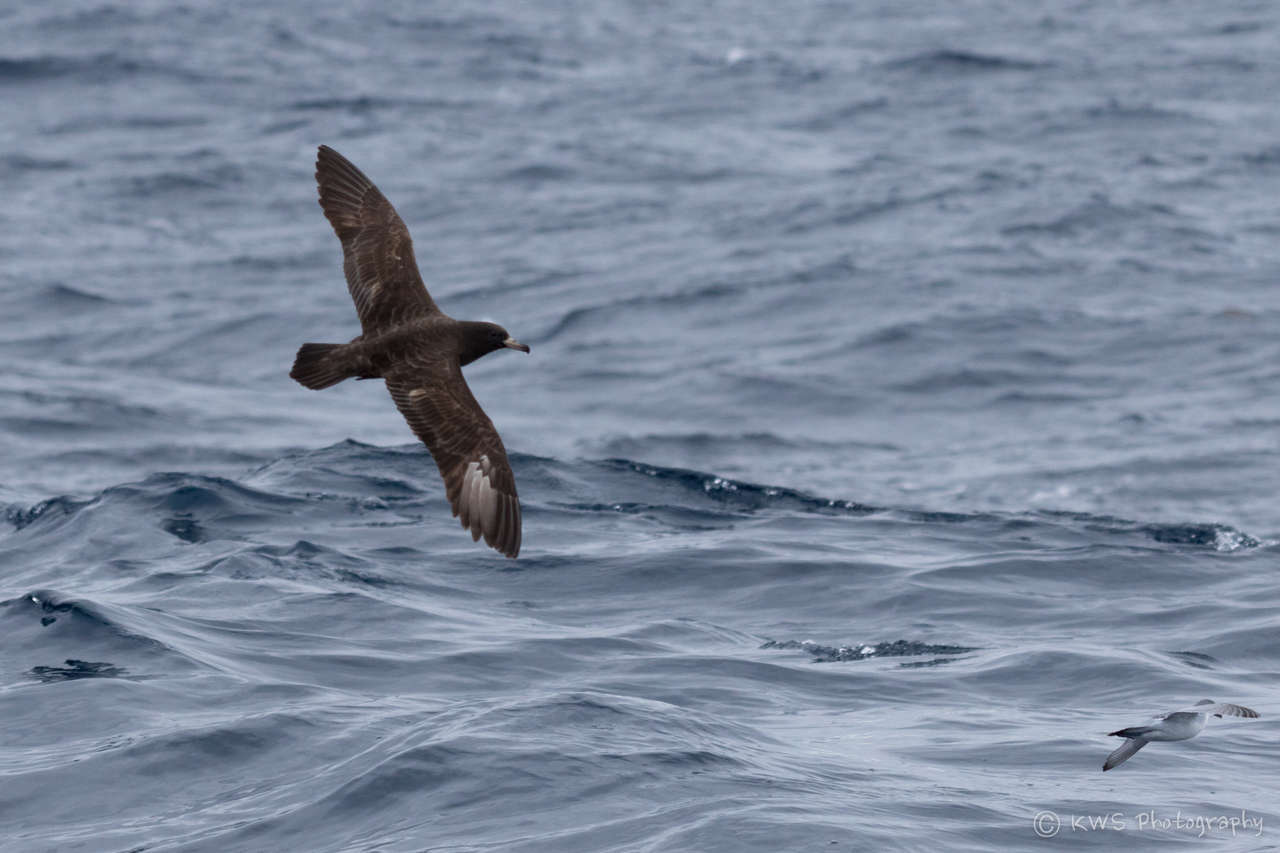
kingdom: Animalia
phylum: Chordata
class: Aves
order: Procellariiformes
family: Procellariidae
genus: Puffinus
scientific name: Puffinus carneipes
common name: Flesh-footed shearwater
